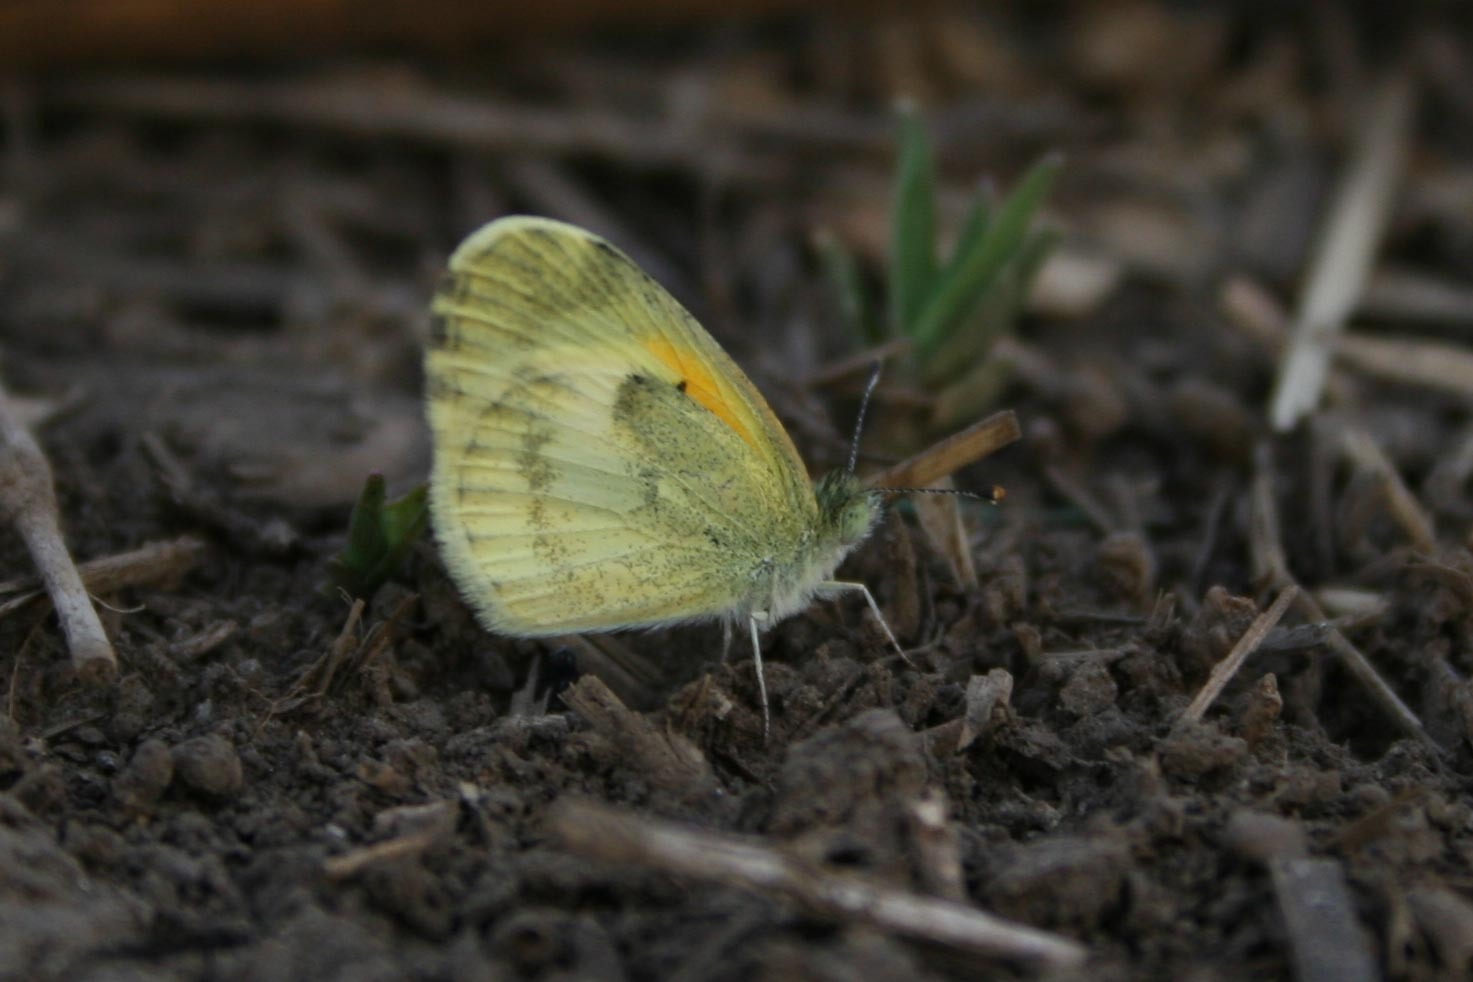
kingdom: Animalia
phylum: Arthropoda
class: Insecta
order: Lepidoptera
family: Pieridae
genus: Nathalis
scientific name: Nathalis iole
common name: Dainty sulphur
